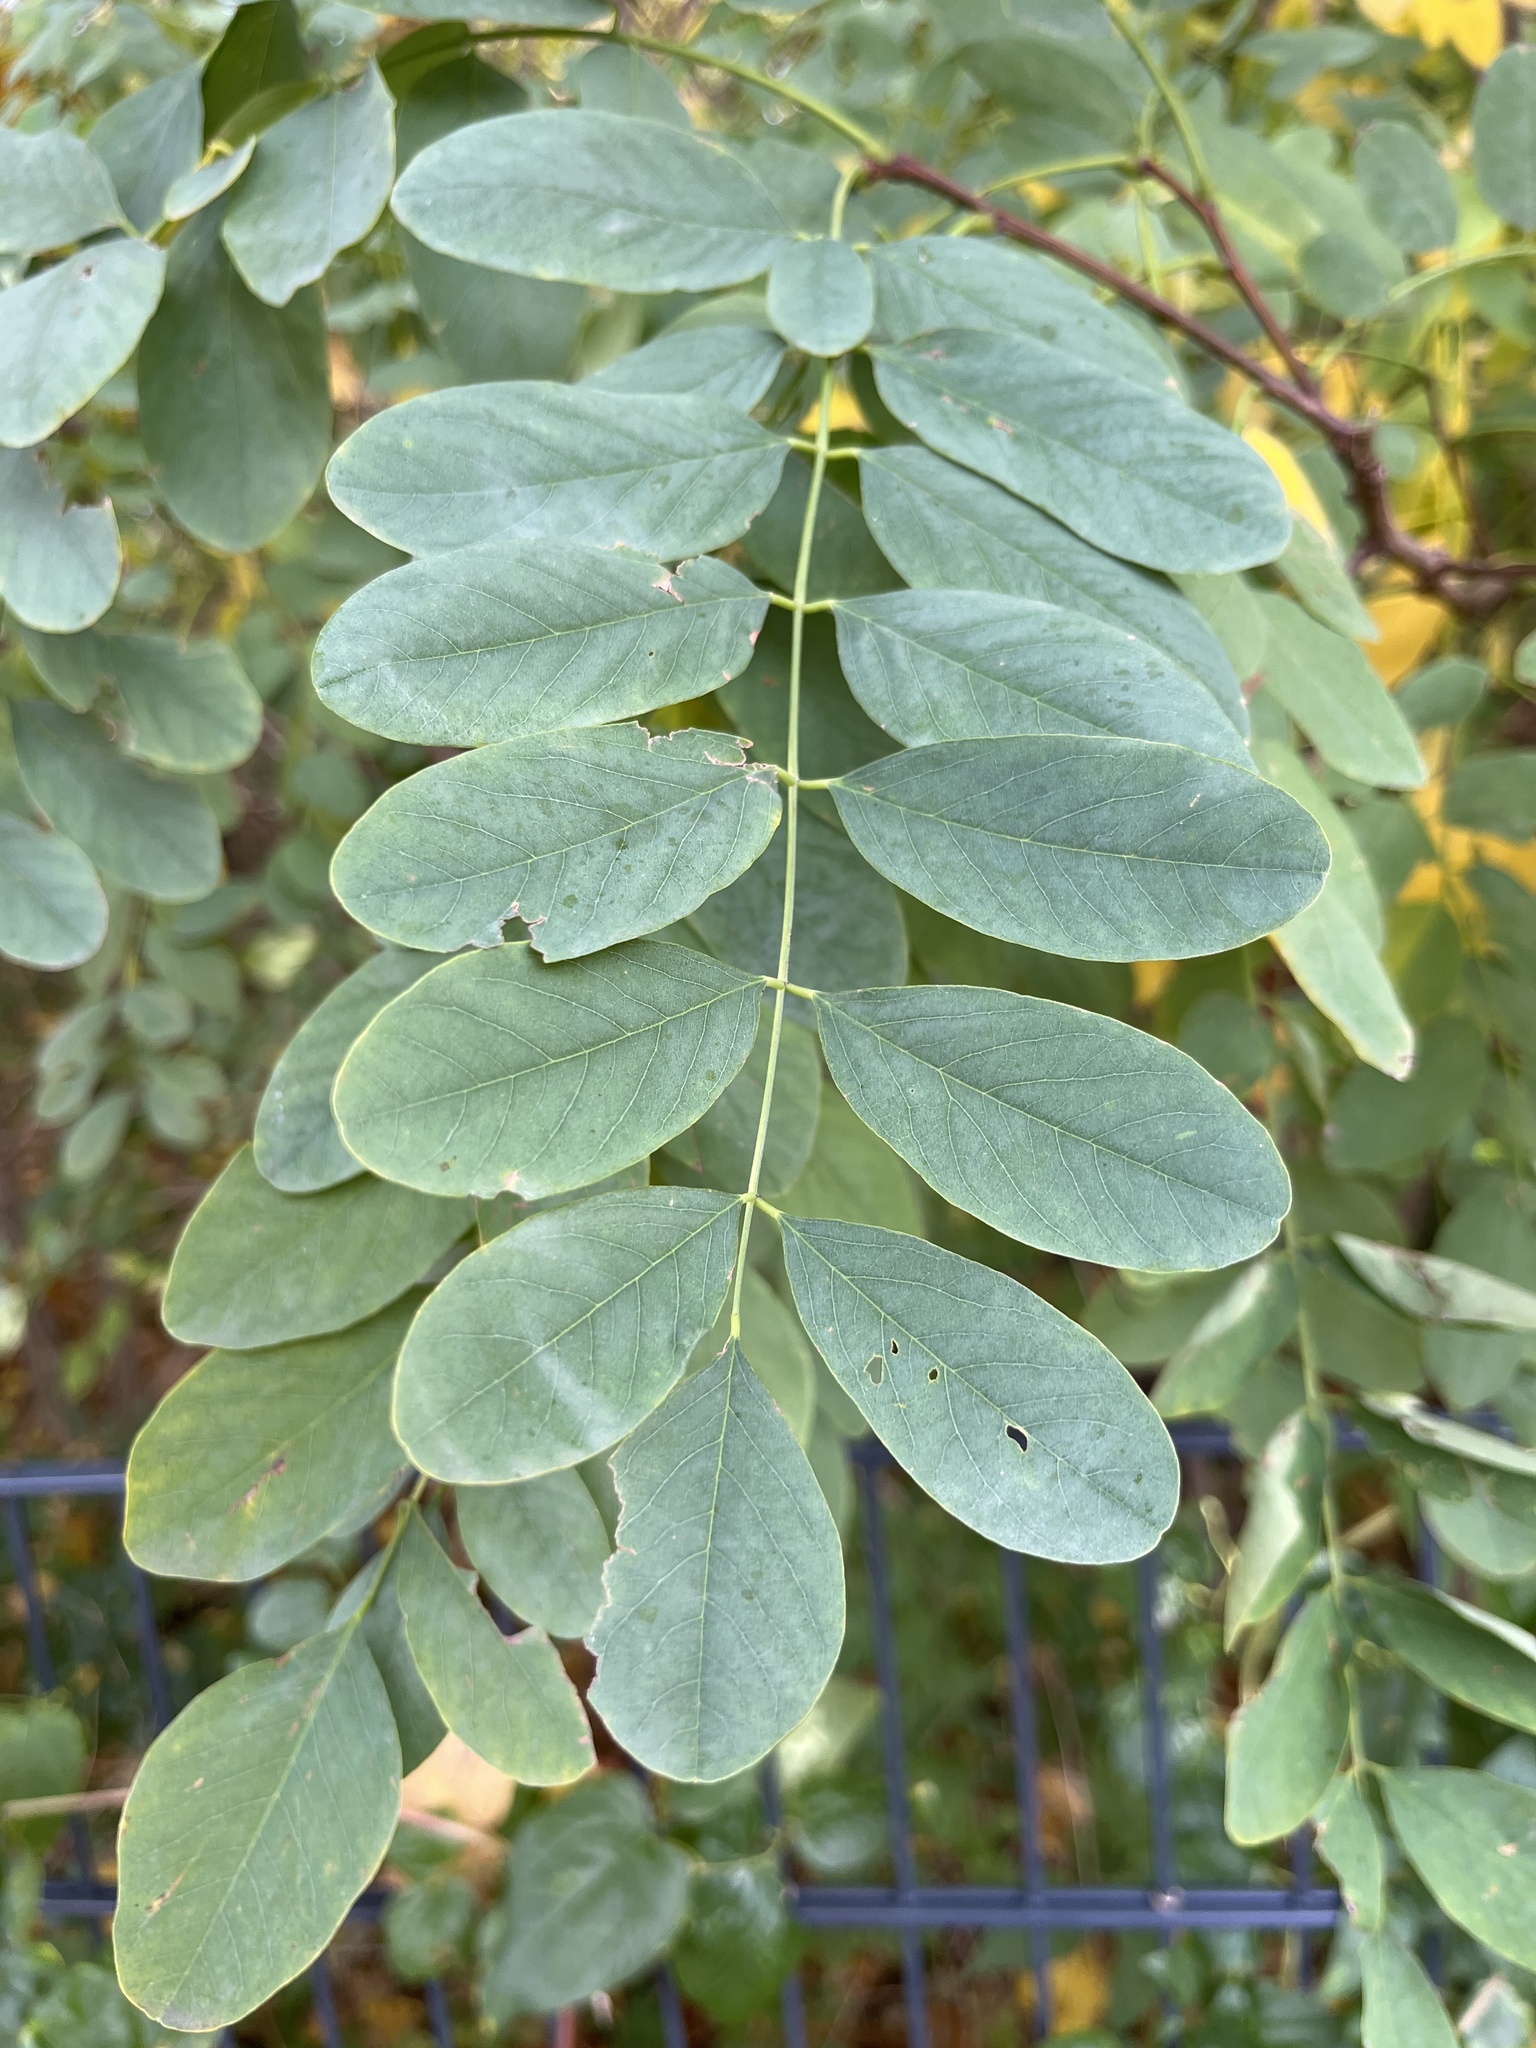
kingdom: Plantae
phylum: Tracheophyta
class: Magnoliopsida
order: Fabales
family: Fabaceae
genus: Robinia
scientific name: Robinia pseudoacacia
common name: Black locust
